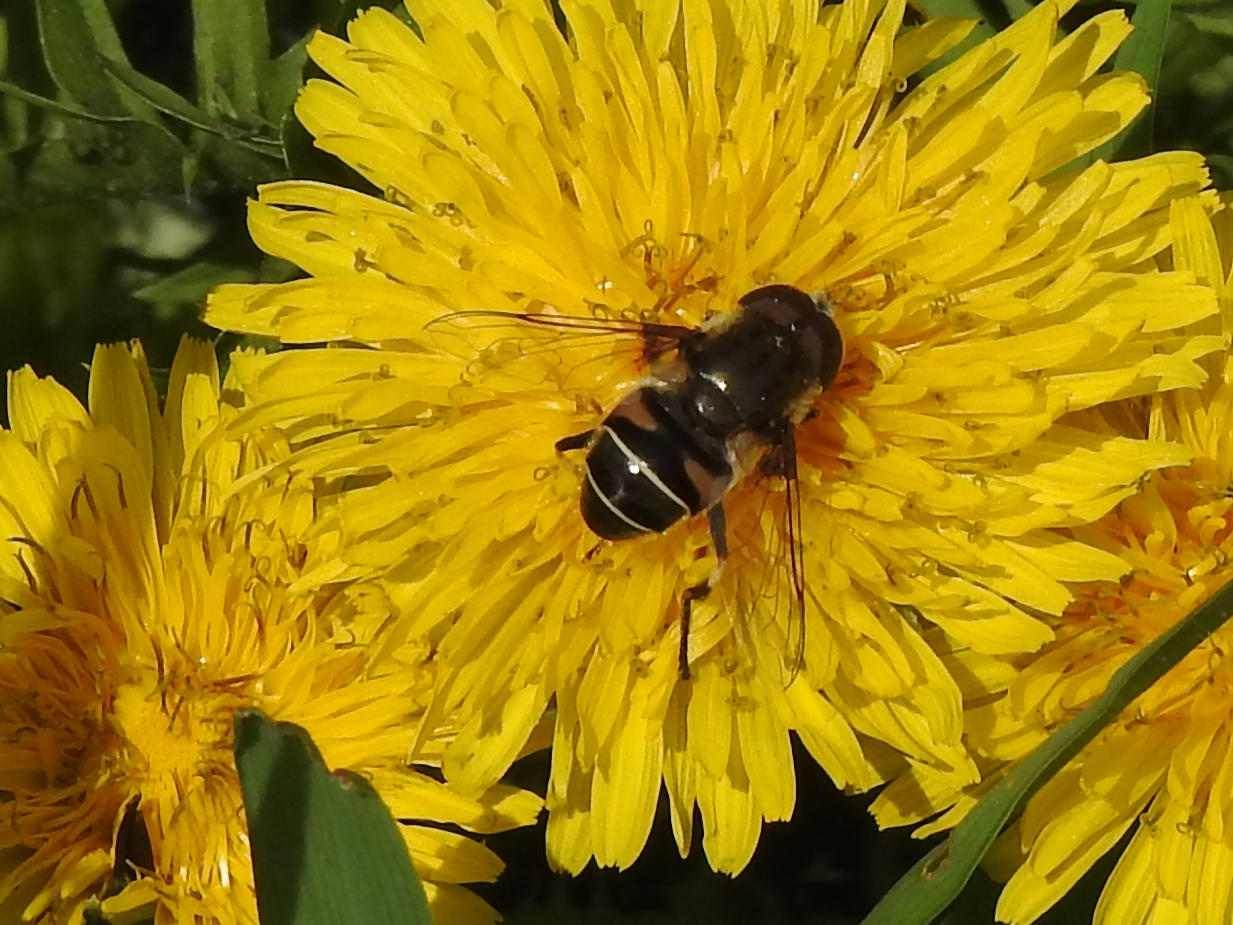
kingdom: Animalia
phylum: Arthropoda
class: Insecta
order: Diptera
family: Syrphidae
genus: Eristalis
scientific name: Eristalis dimidiata
